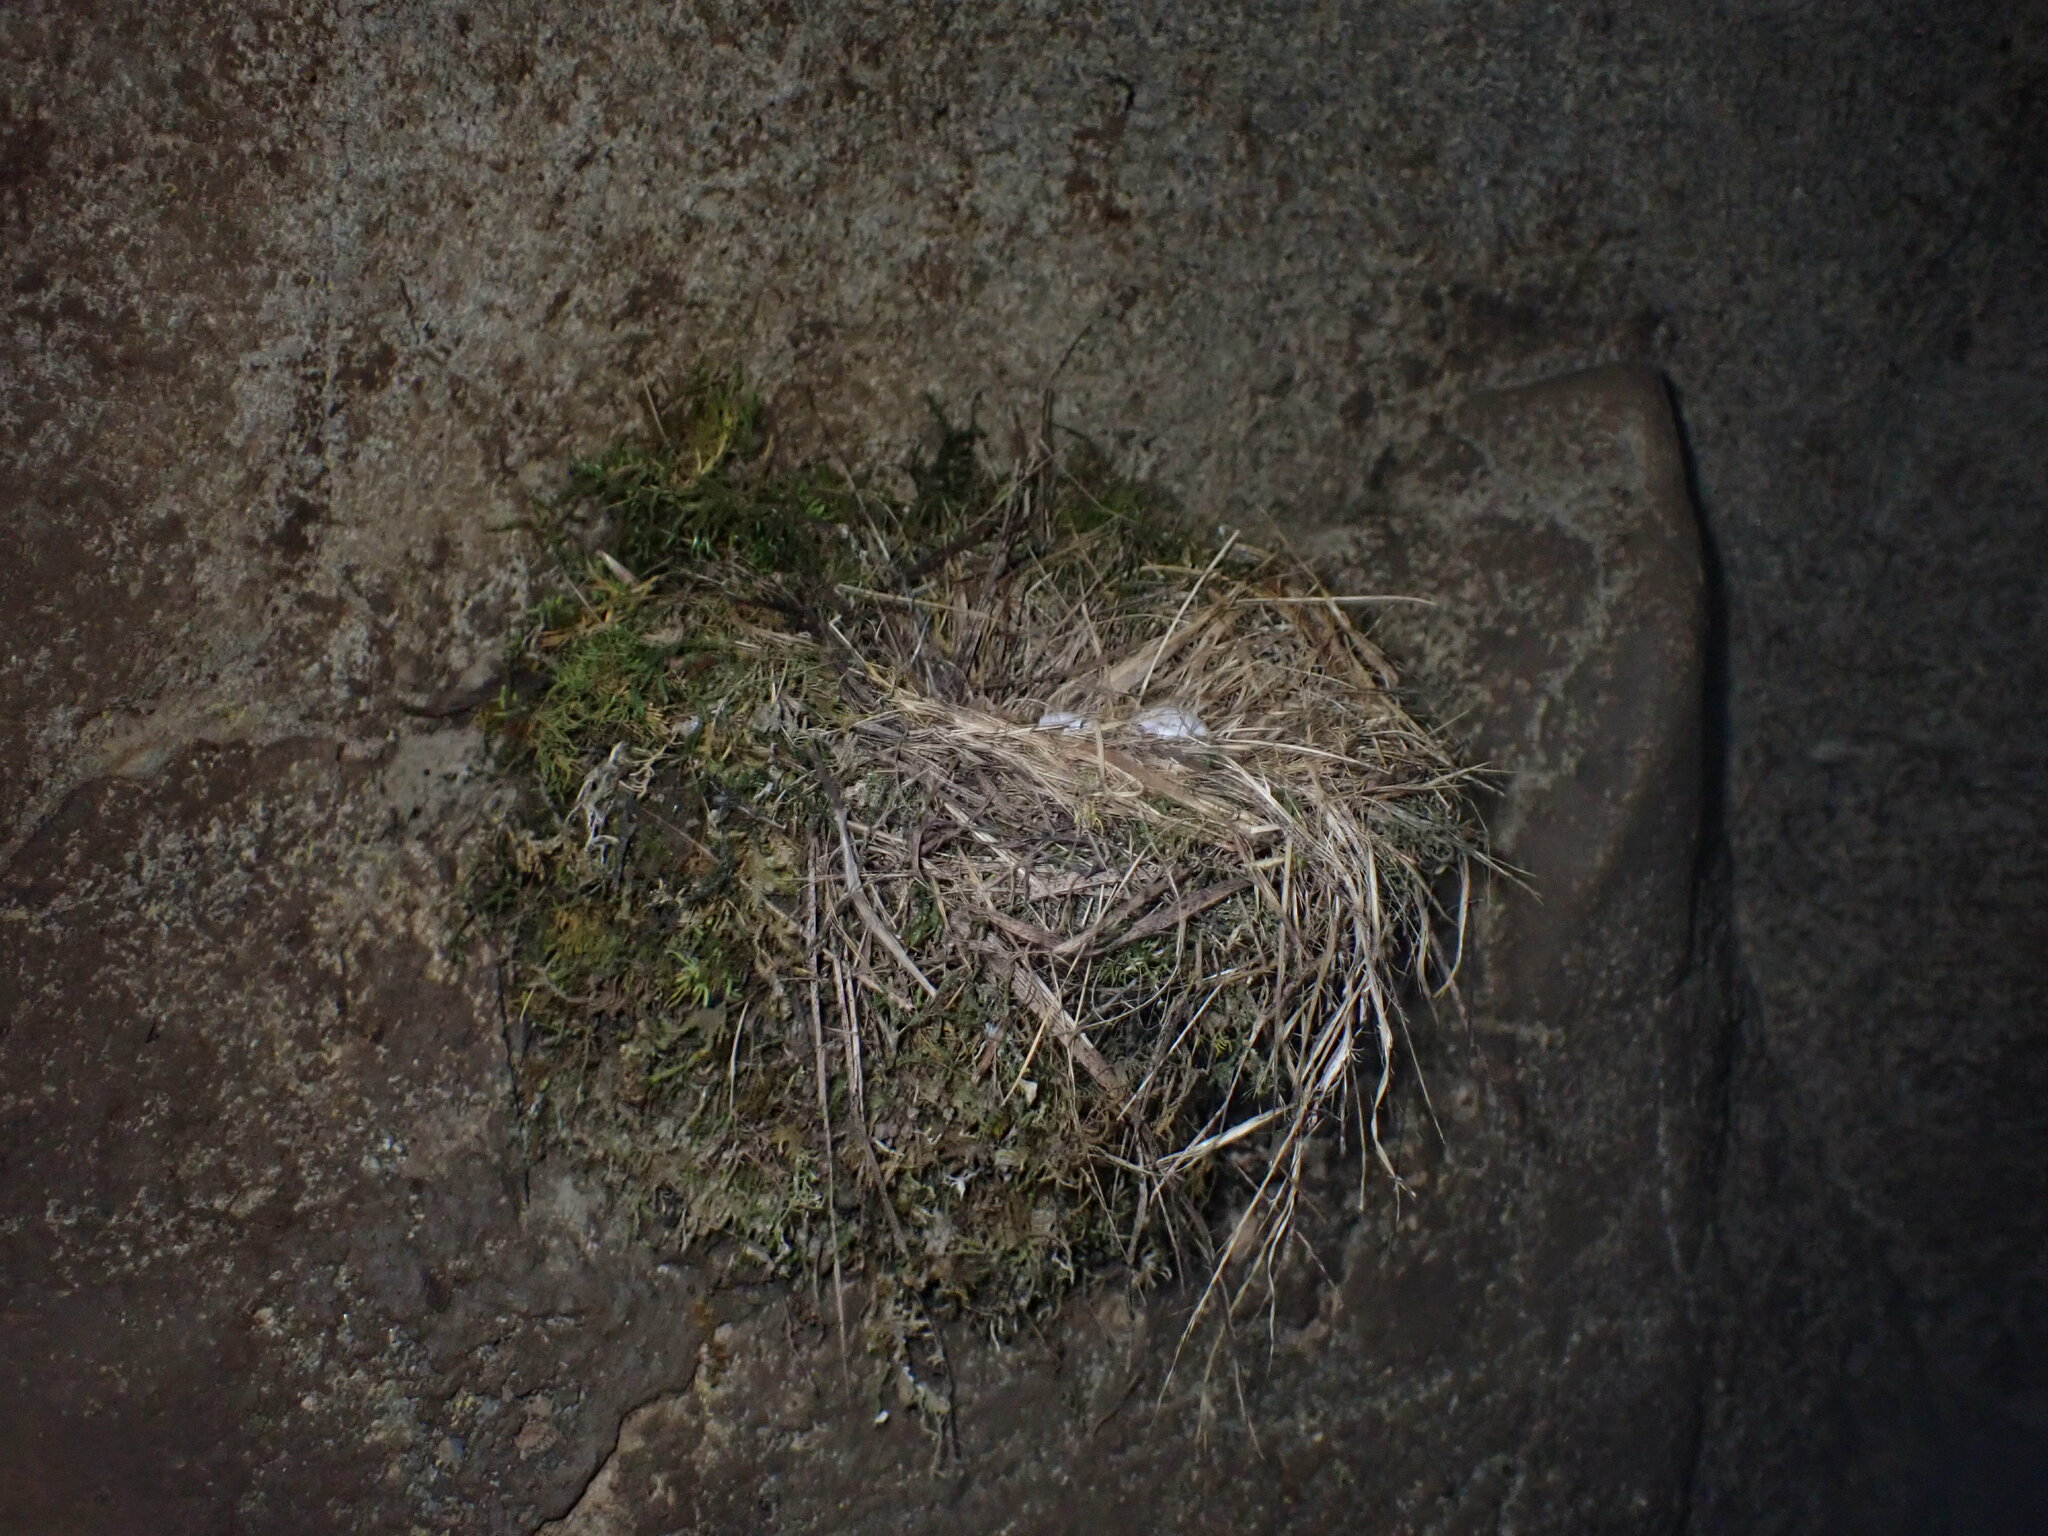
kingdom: Animalia
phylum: Chordata
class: Aves
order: Passeriformes
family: Tyrannidae
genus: Sayornis
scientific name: Sayornis phoebe
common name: Eastern phoebe
